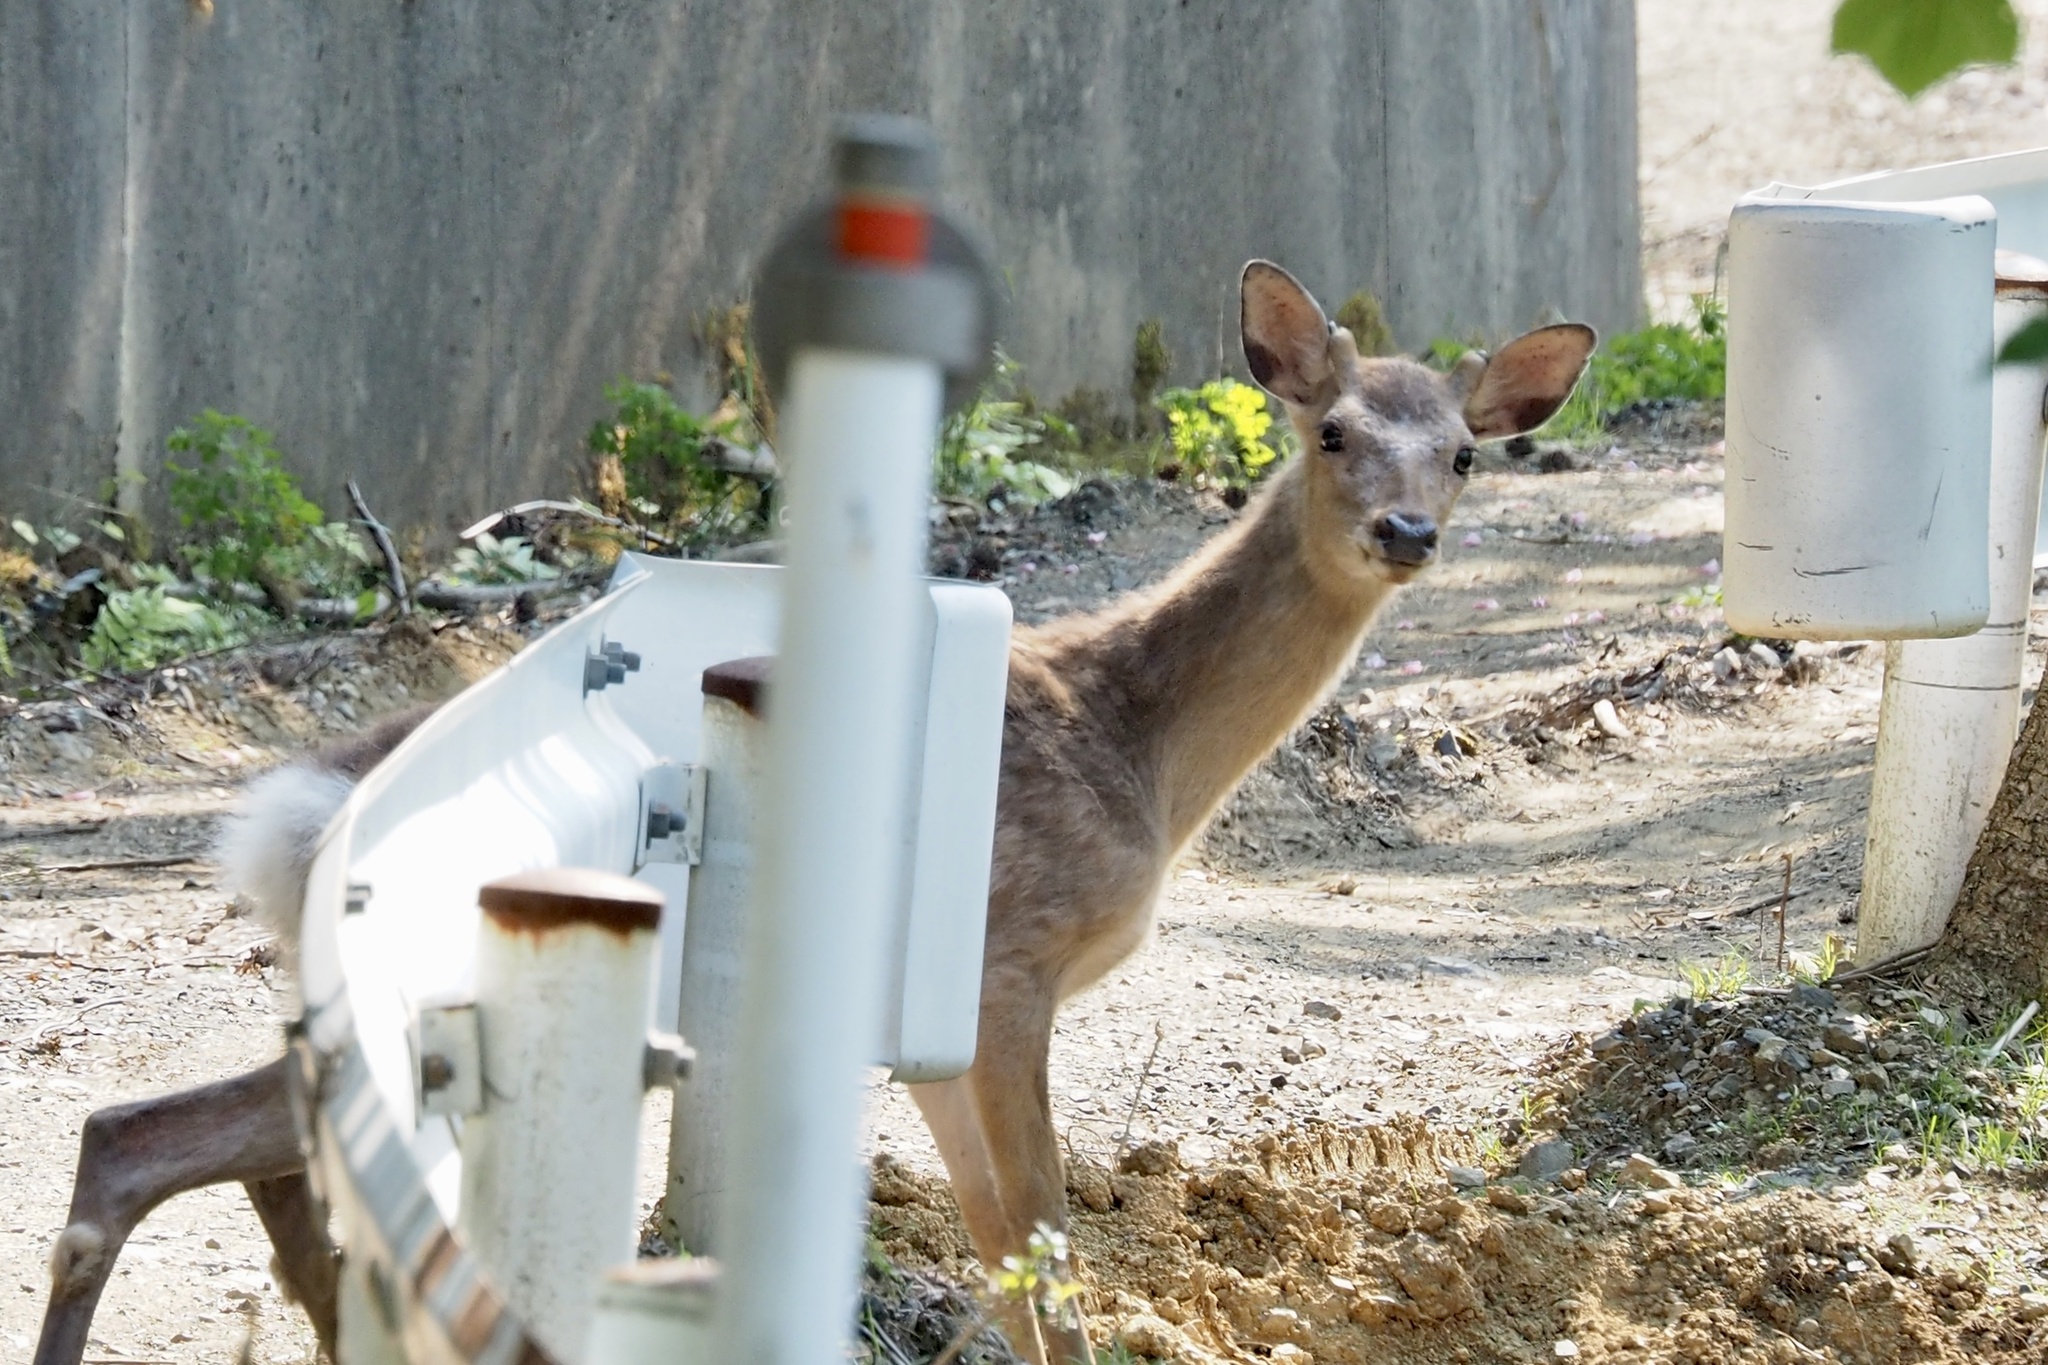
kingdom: Animalia
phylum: Chordata
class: Mammalia
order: Artiodactyla
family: Cervidae
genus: Cervus
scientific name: Cervus nippon
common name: Sika deer
